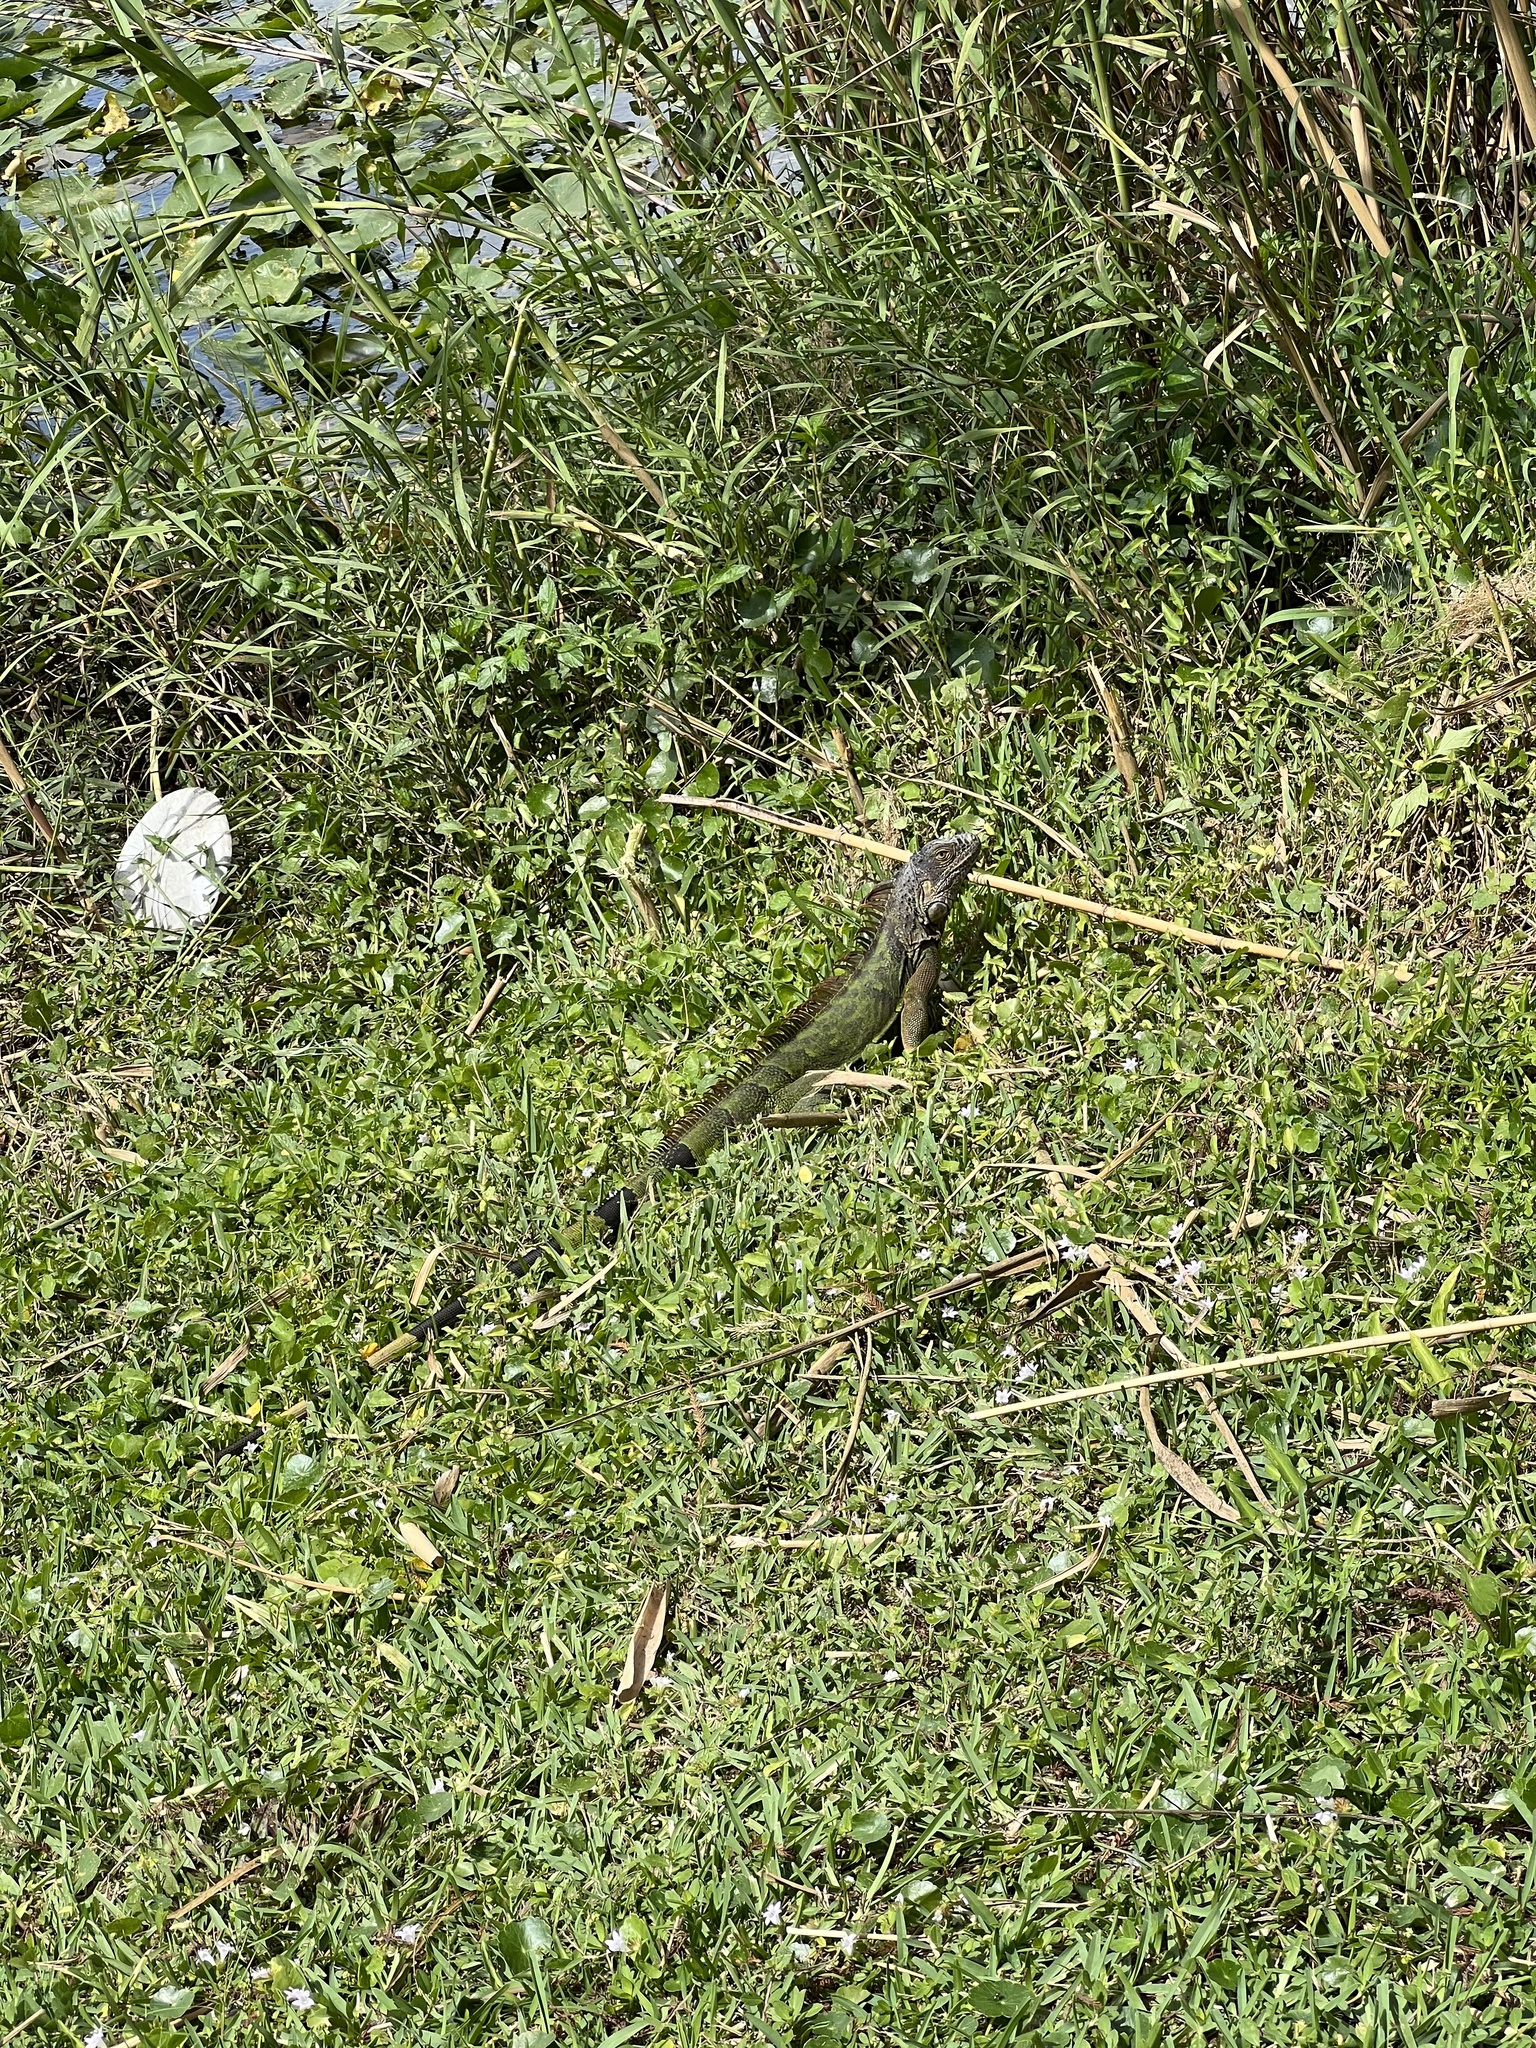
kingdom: Animalia
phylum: Chordata
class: Squamata
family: Iguanidae
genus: Iguana
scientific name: Iguana iguana
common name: Green iguana
